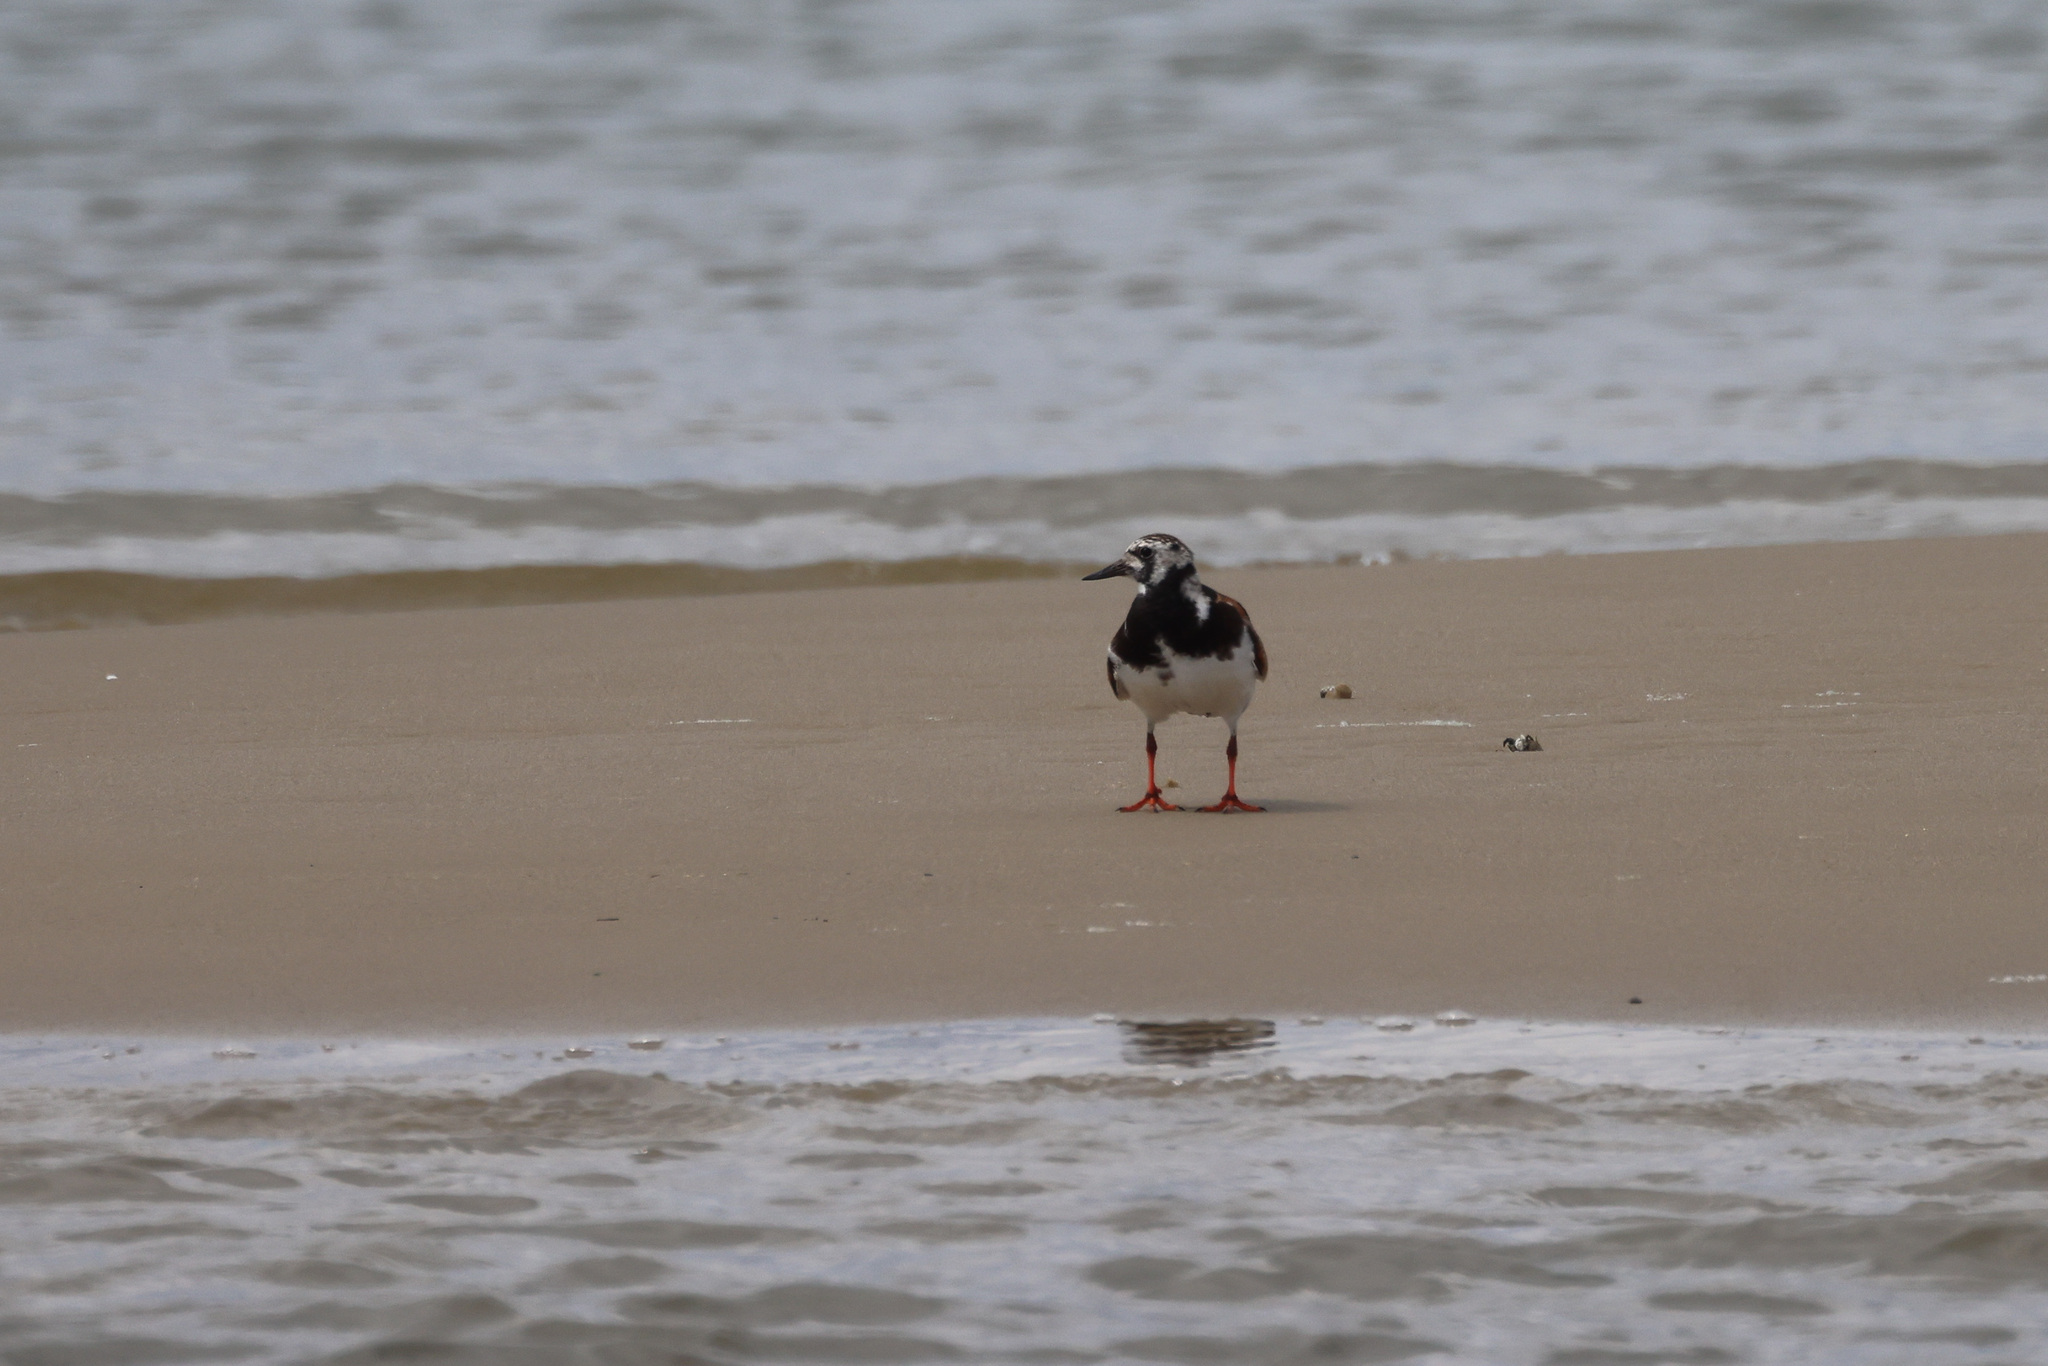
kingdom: Animalia
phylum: Chordata
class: Aves
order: Charadriiformes
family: Scolopacidae
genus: Arenaria
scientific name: Arenaria interpres
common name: Ruddy turnstone
